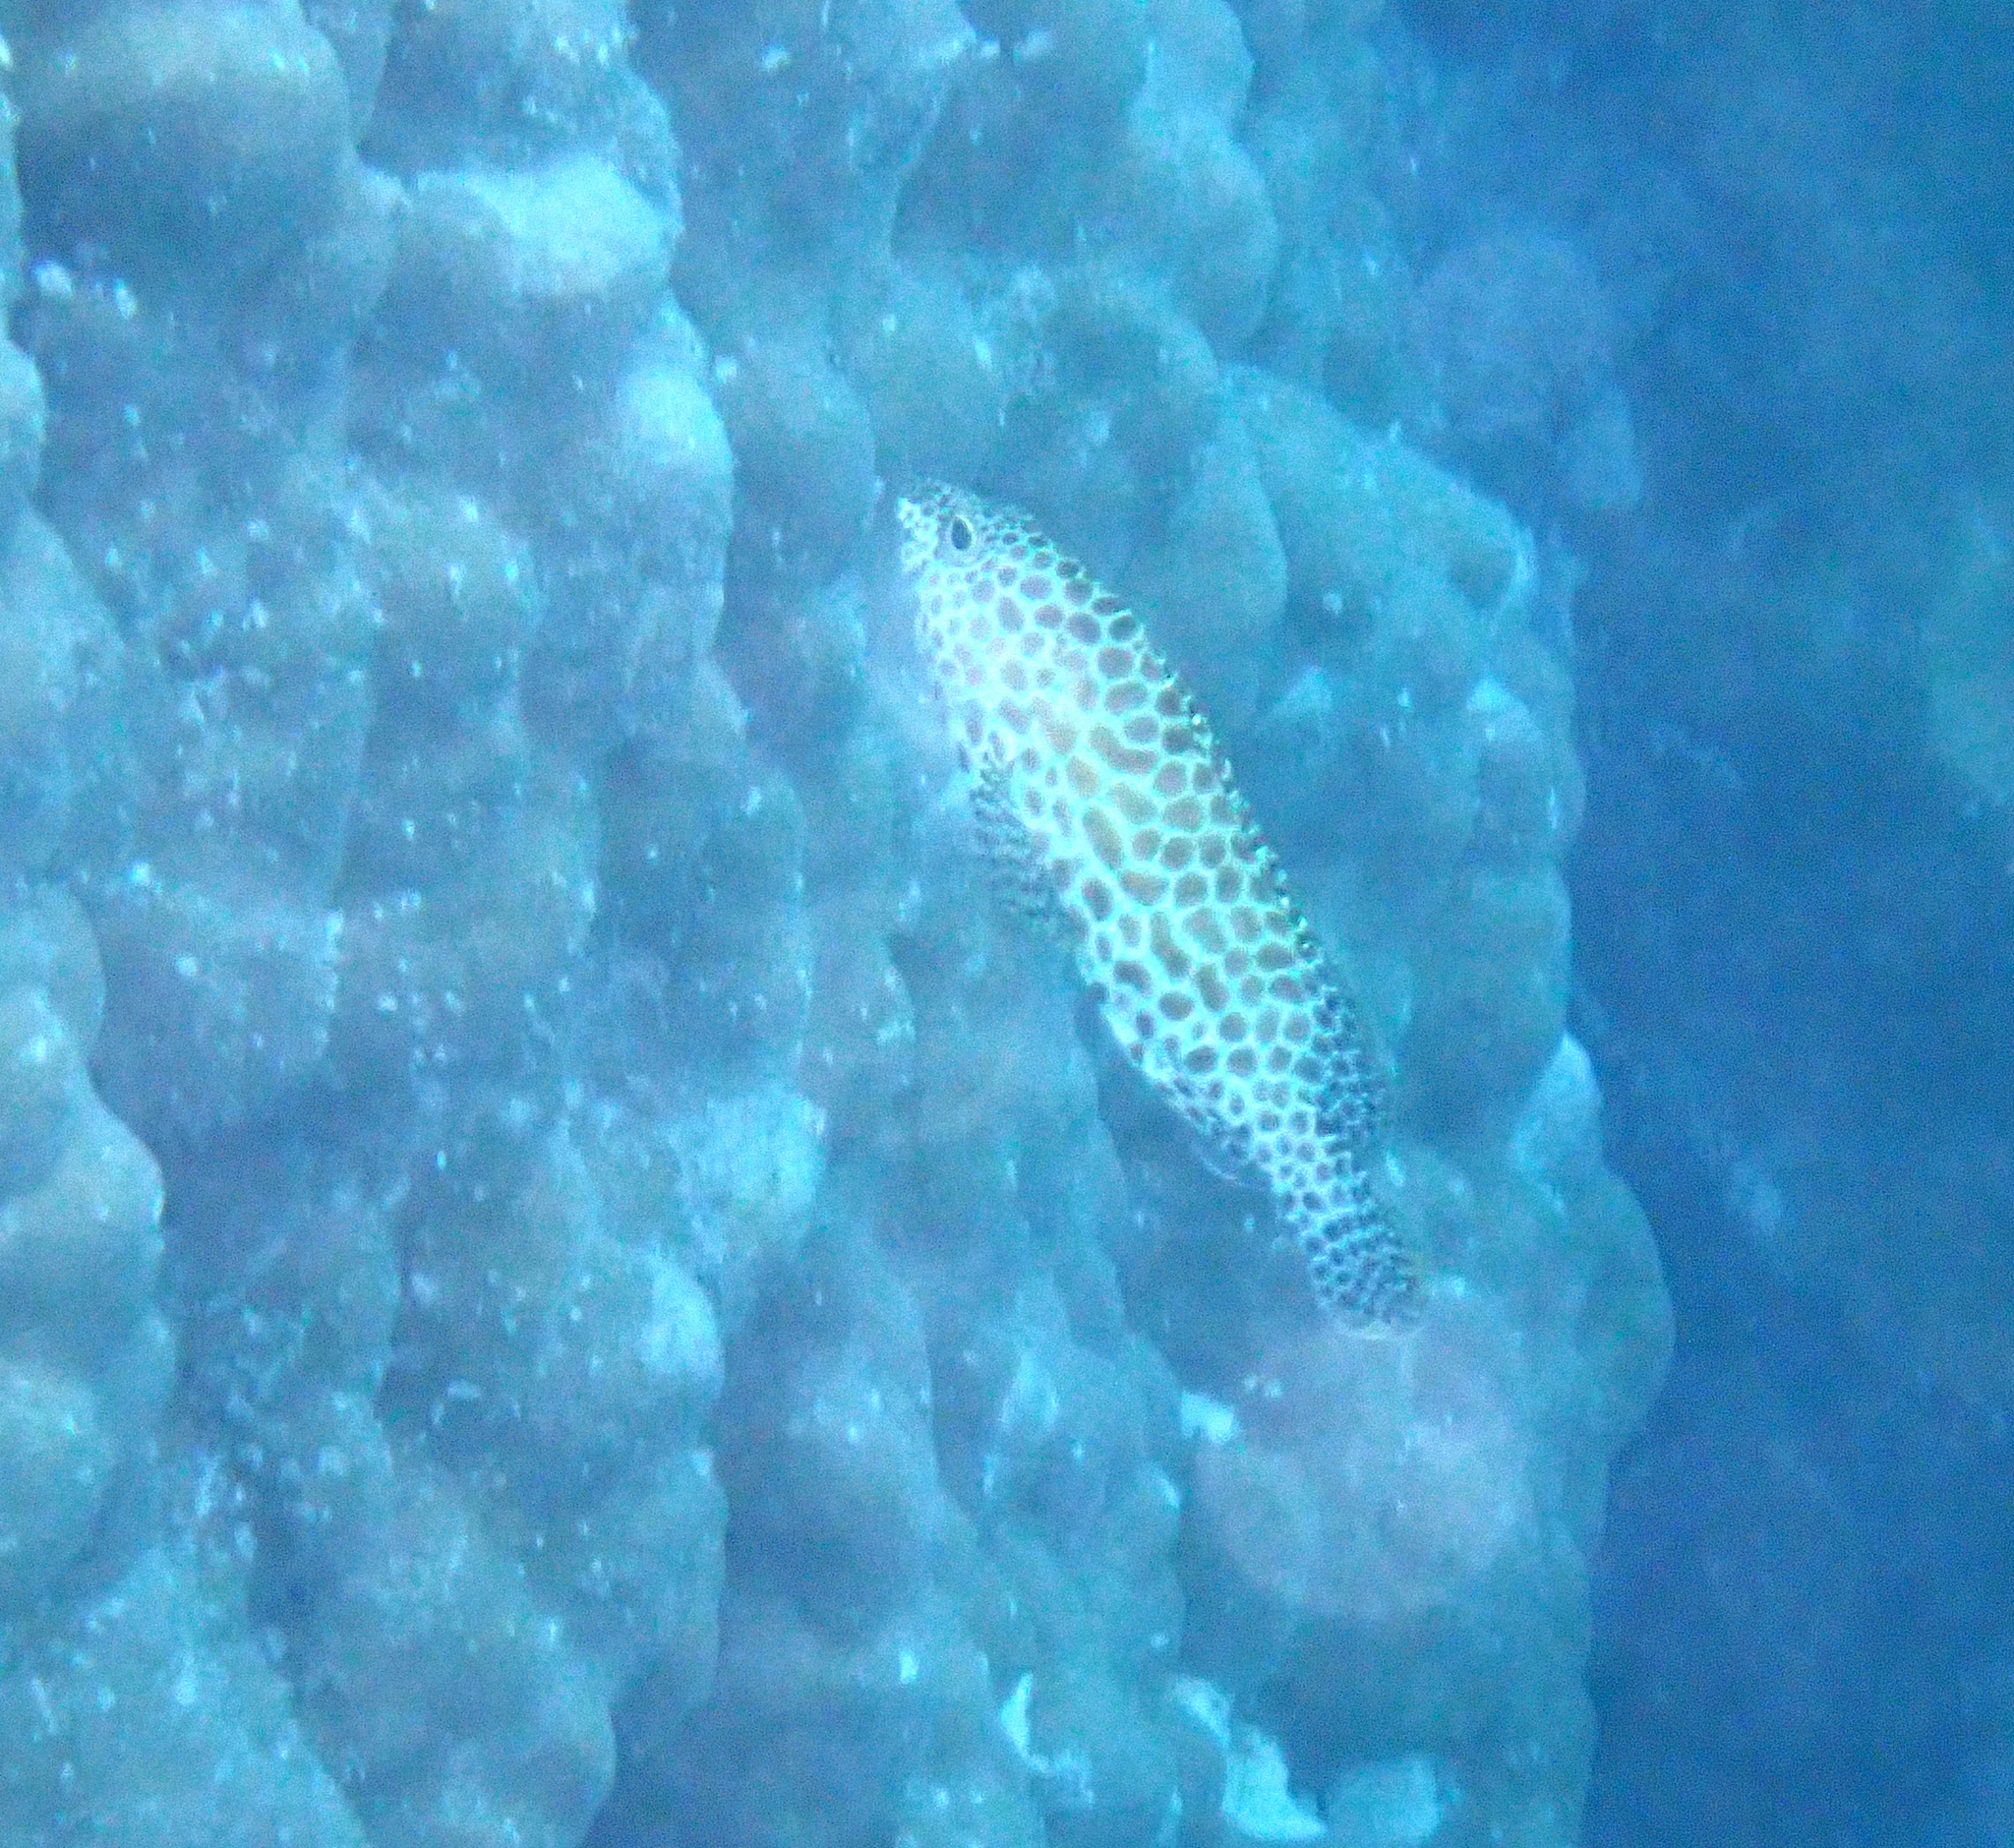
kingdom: Animalia
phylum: Chordata
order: Perciformes
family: Serranidae
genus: Epinephelus
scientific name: Epinephelus merra
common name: Honeycomb grouper
